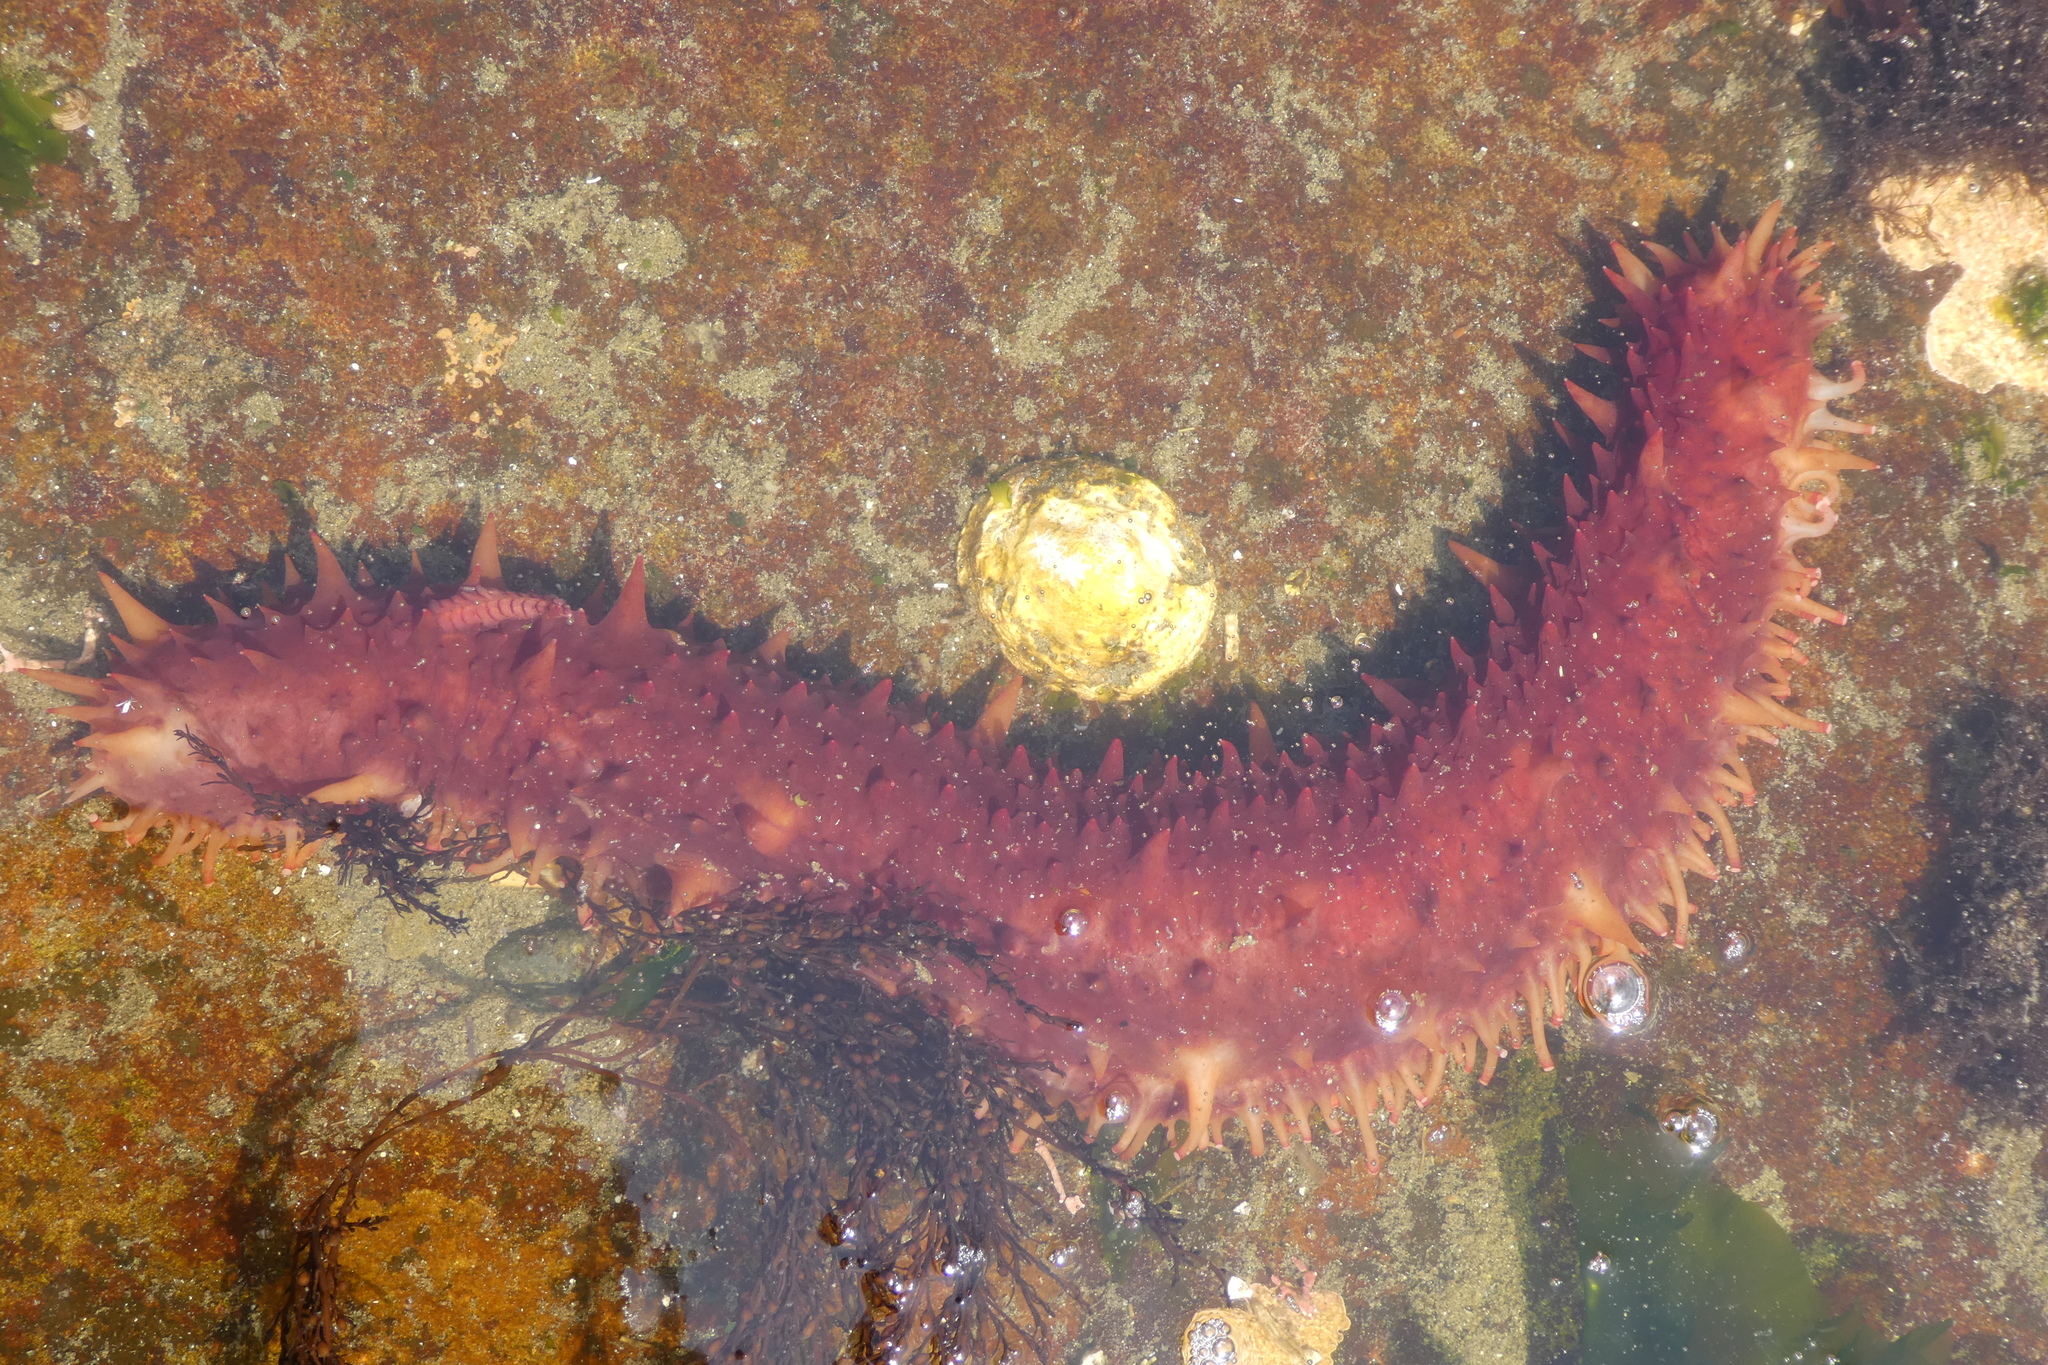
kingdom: Animalia
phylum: Echinodermata
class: Holothuroidea
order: Synallactida
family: Stichopodidae
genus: Apostichopus
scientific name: Apostichopus californicus
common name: California sea cucumber
